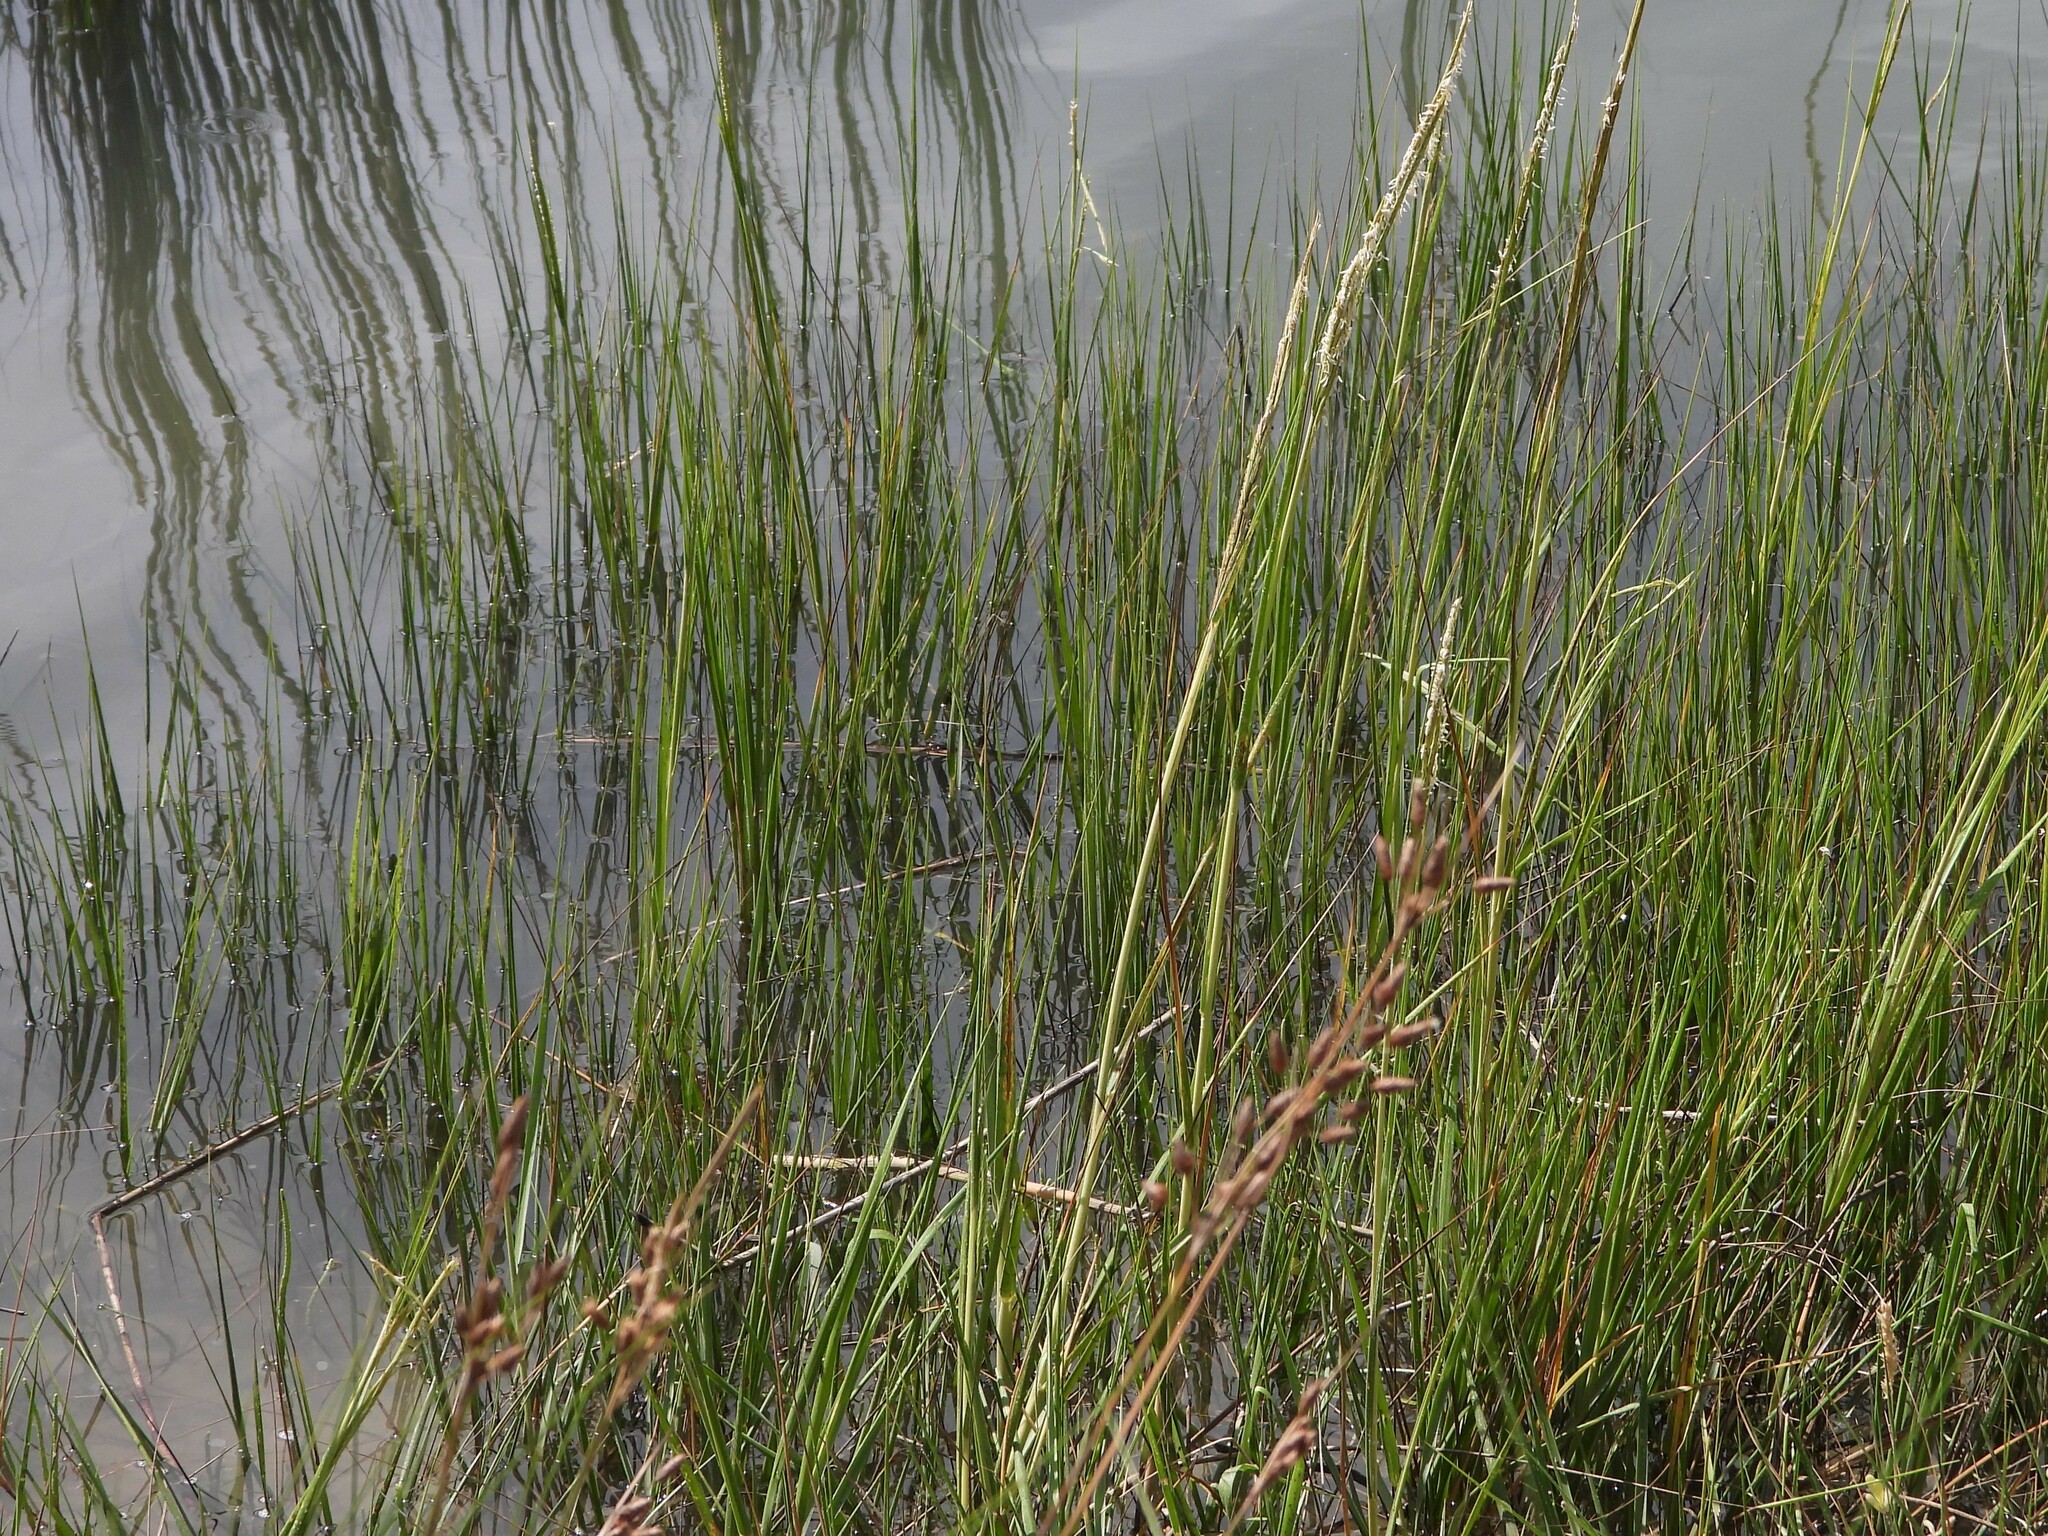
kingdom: Plantae
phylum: Tracheophyta
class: Liliopsida
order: Poales
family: Poaceae
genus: Sporobolus
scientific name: Sporobolus alterniflorus
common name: Atlantic cordgrass
